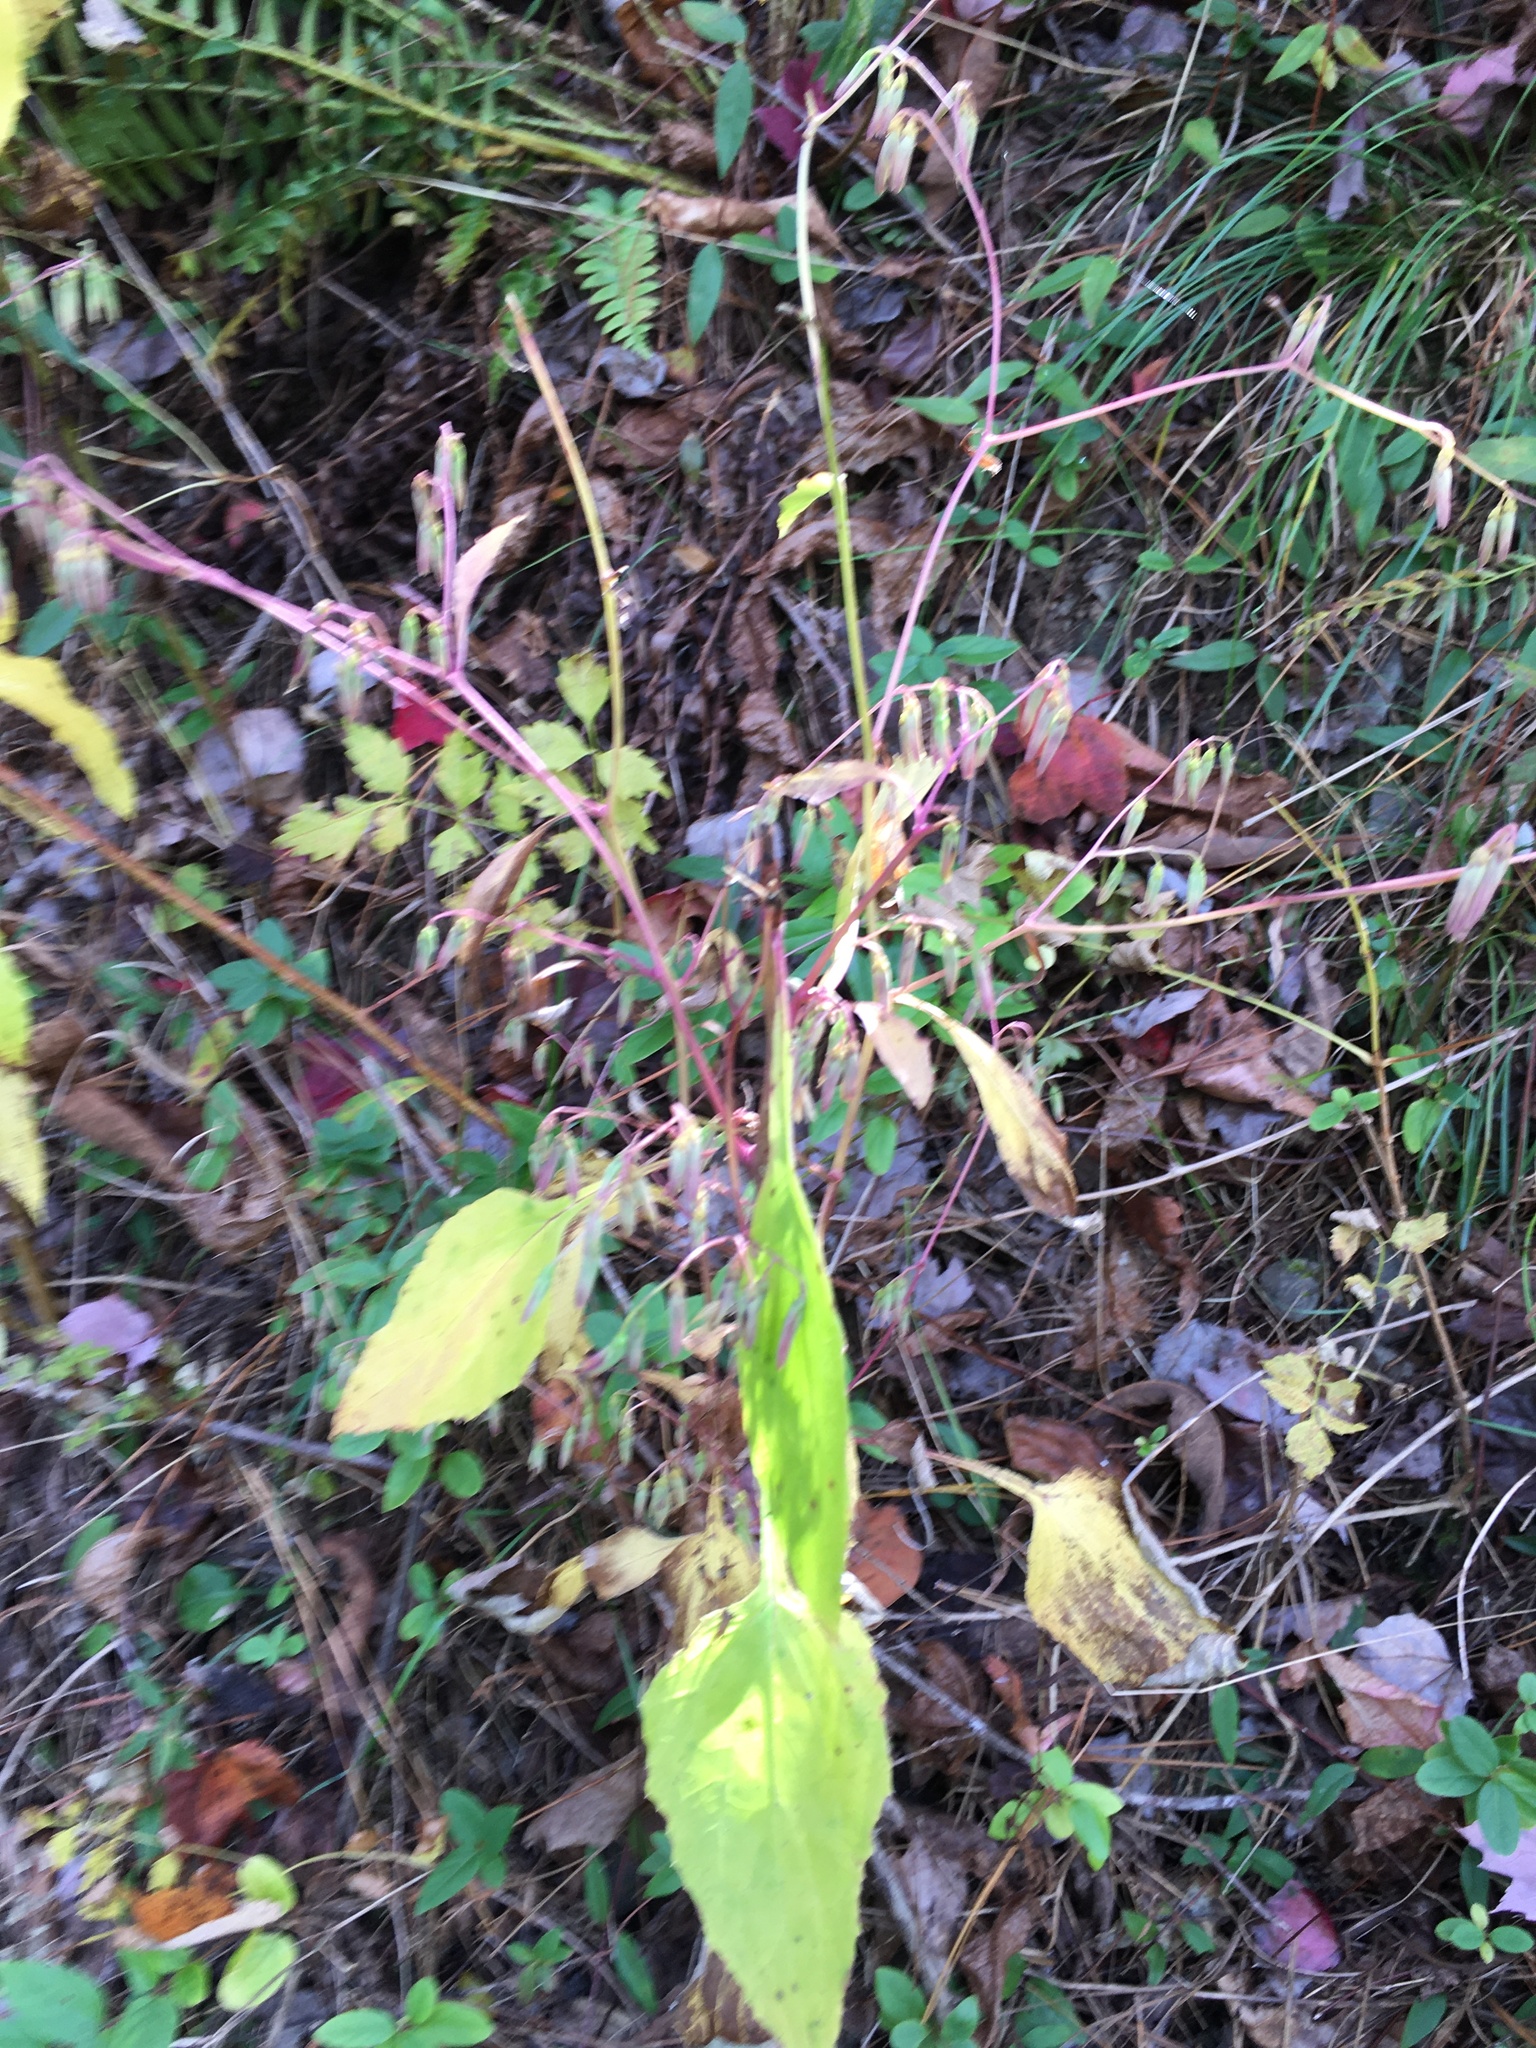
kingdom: Plantae
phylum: Tracheophyta
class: Magnoliopsida
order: Asterales
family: Asteraceae
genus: Nabalus
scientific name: Nabalus altissima
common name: Tall rattlesnakeroot
